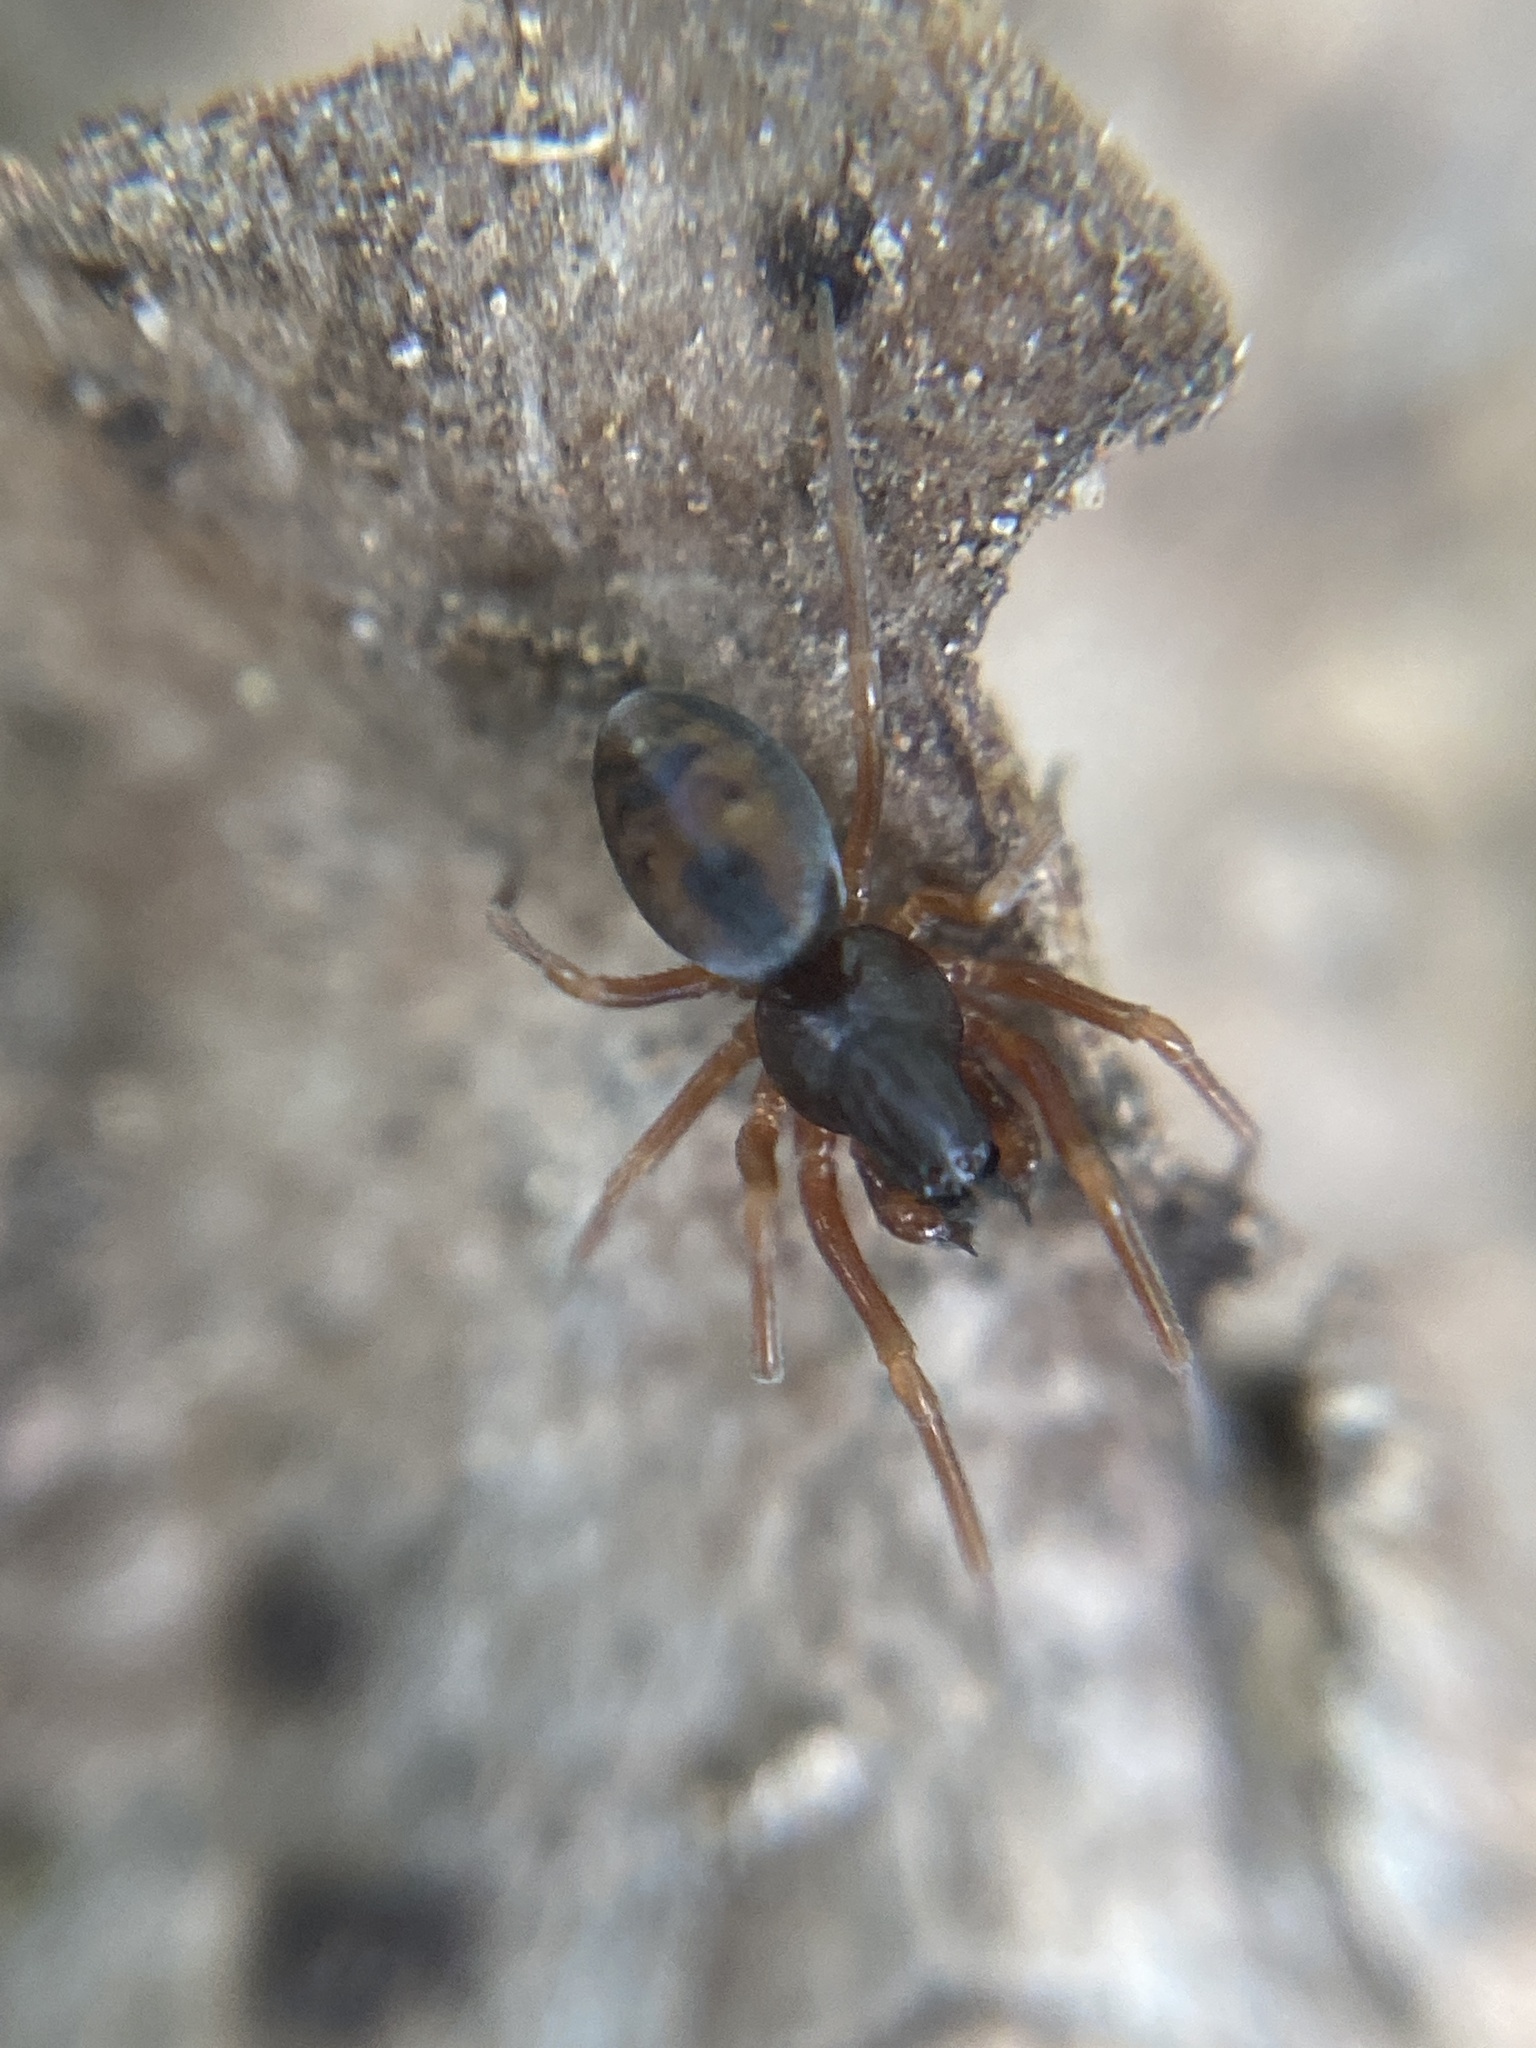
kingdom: Animalia
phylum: Arthropoda
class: Arachnida
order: Araneae
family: Dictynidae
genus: Dictyna
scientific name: Dictyna uncinata
